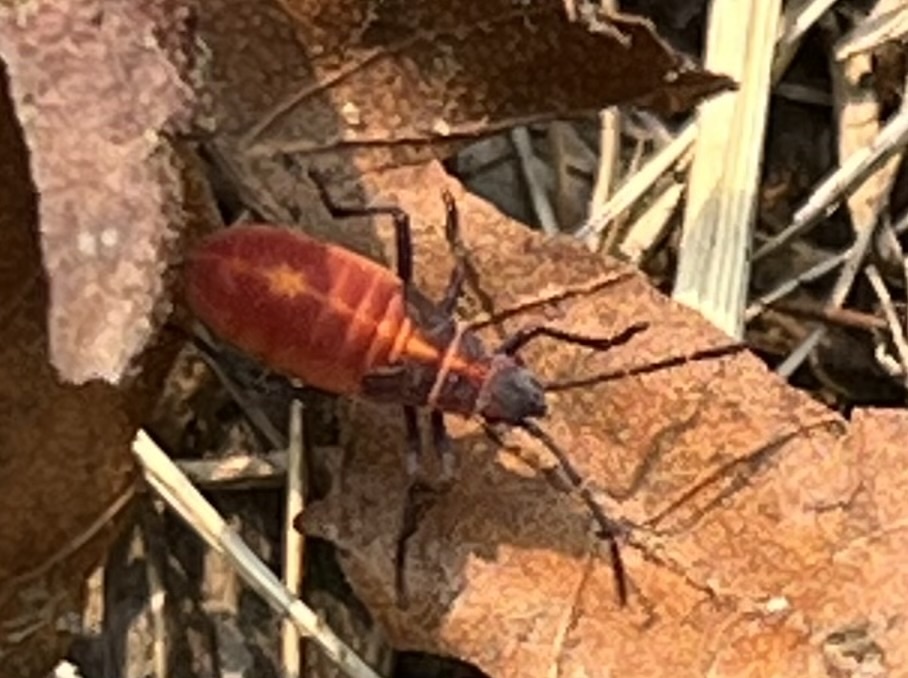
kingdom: Animalia
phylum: Arthropoda
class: Insecta
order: Hemiptera
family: Rhopalidae
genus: Boisea
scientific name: Boisea trivittata
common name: Boxelder bug
